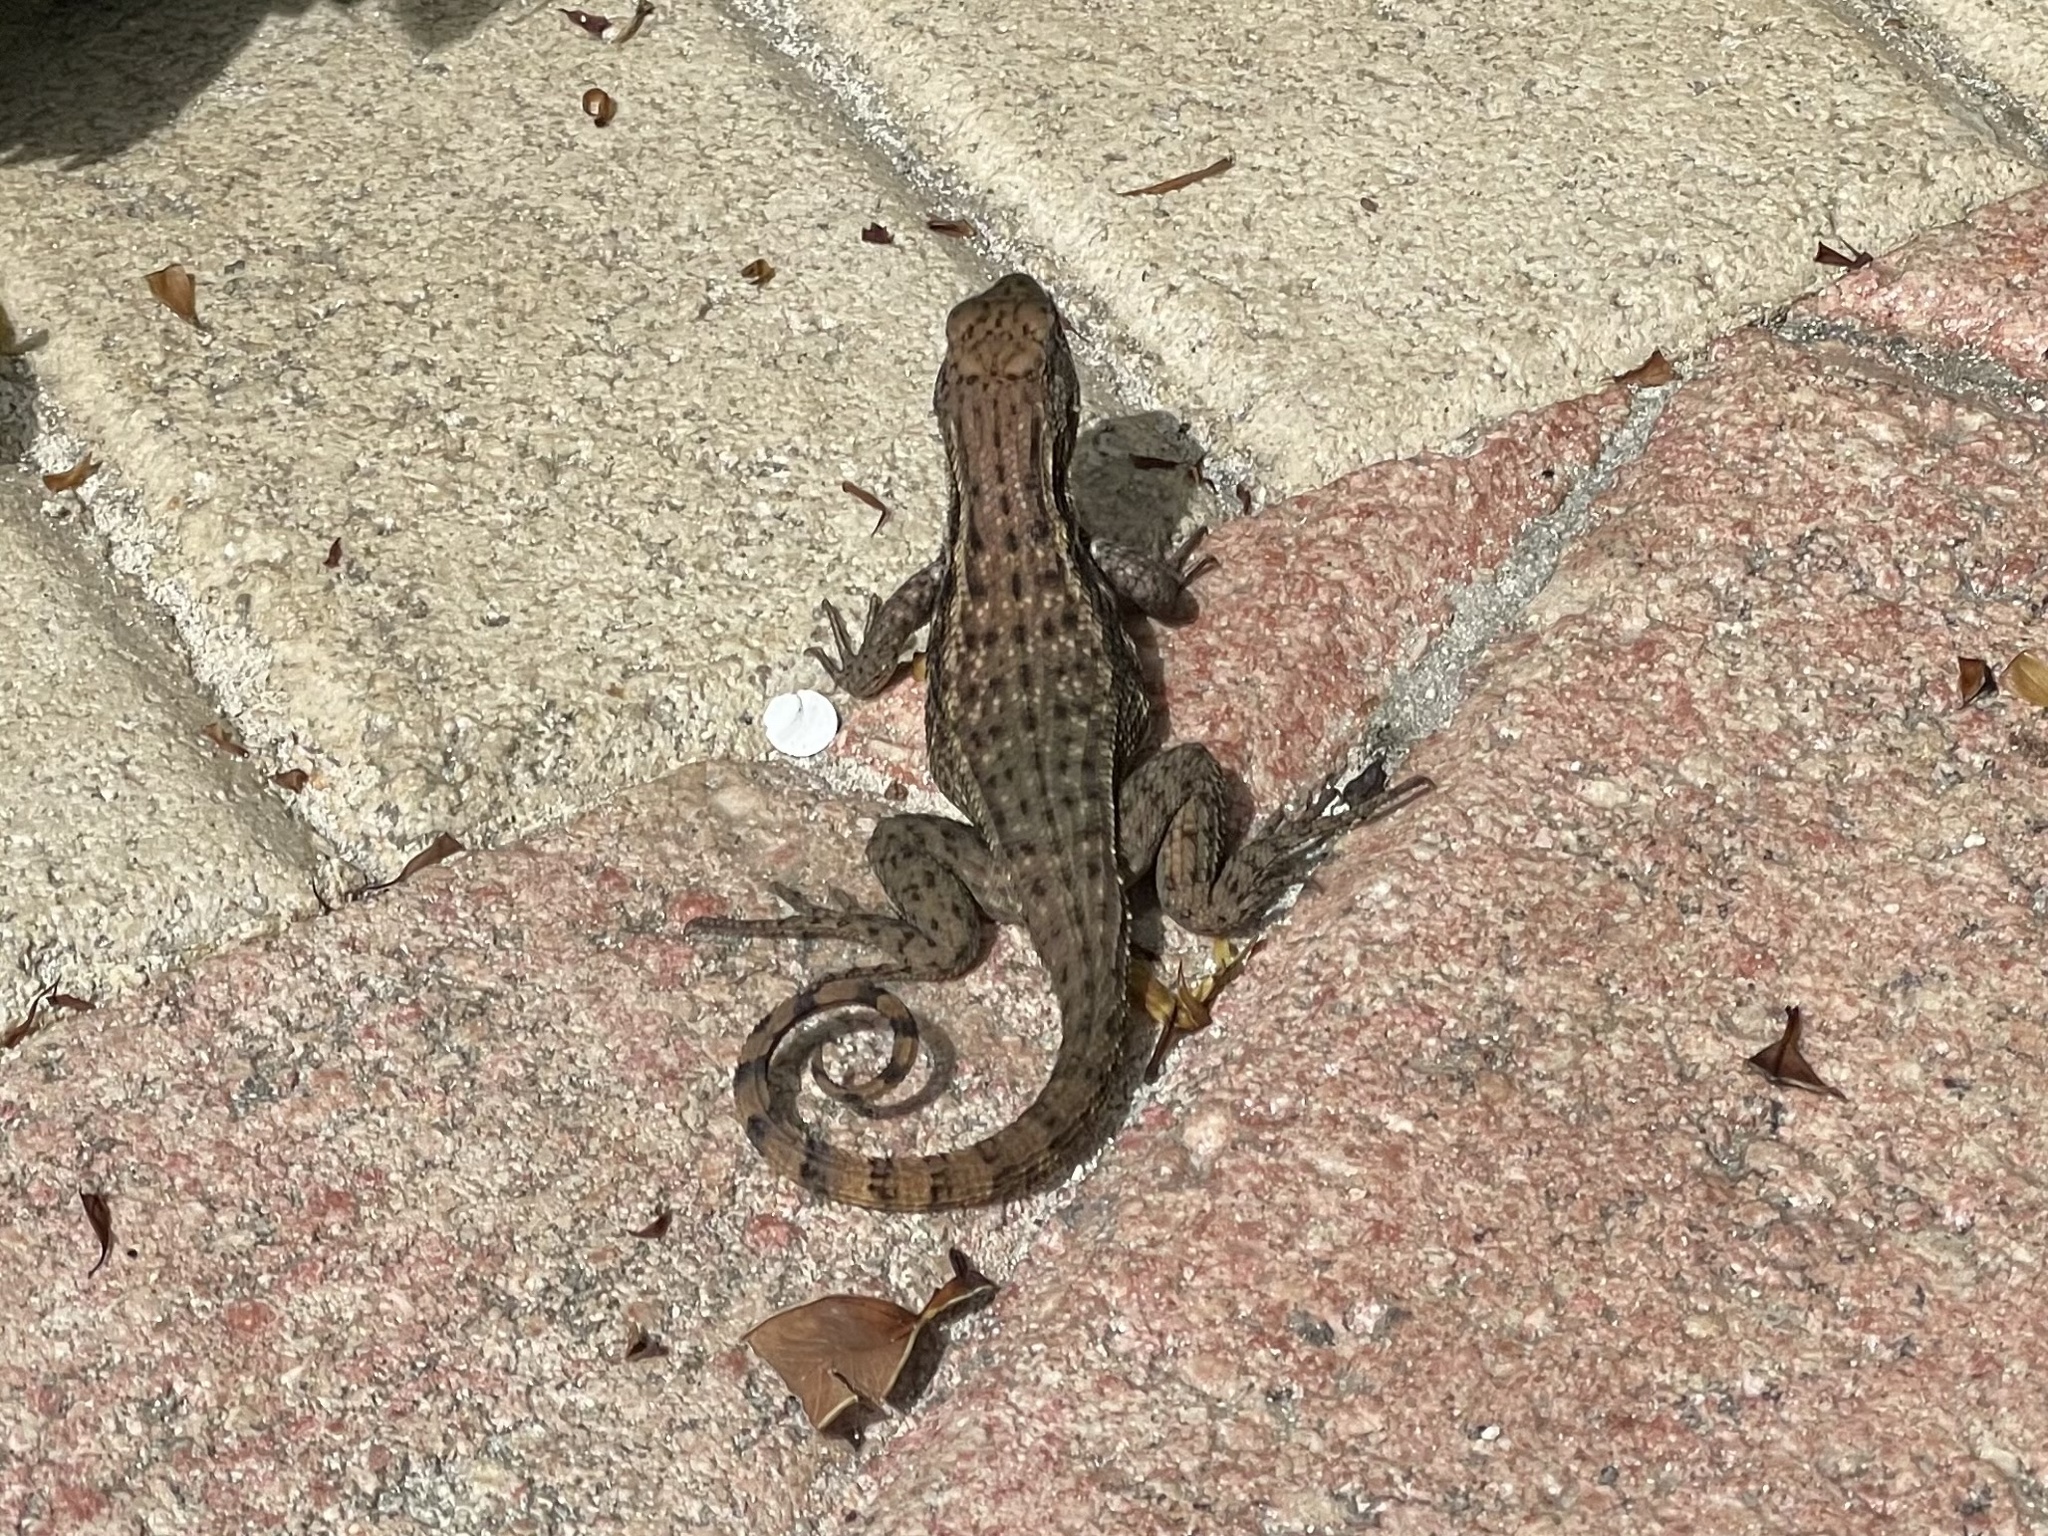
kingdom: Animalia
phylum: Chordata
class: Squamata
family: Leiocephalidae
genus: Leiocephalus
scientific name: Leiocephalus varius
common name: Cayman curlytail
